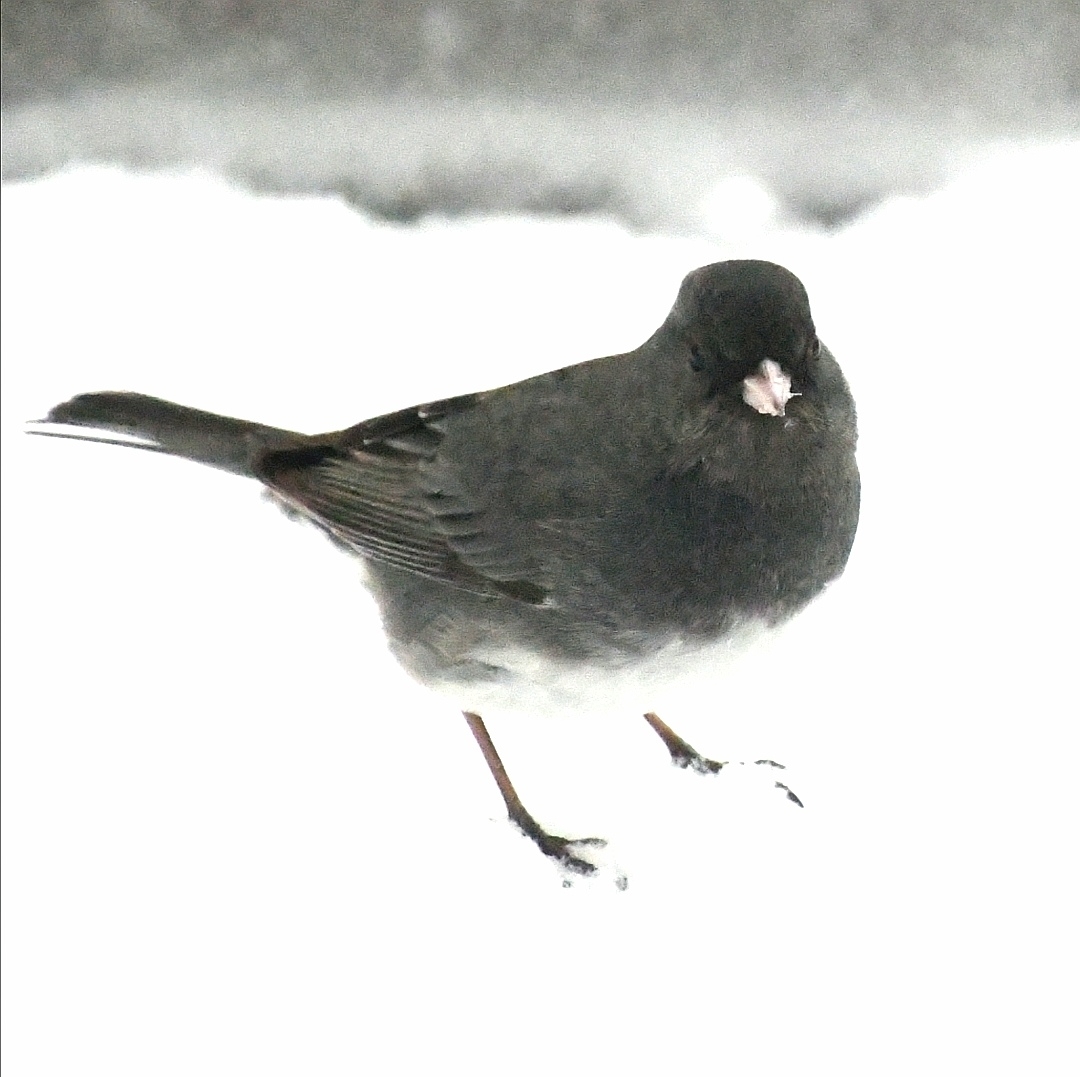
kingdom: Animalia
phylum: Chordata
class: Aves
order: Passeriformes
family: Passerellidae
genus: Junco
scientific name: Junco hyemalis
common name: Dark-eyed junco
